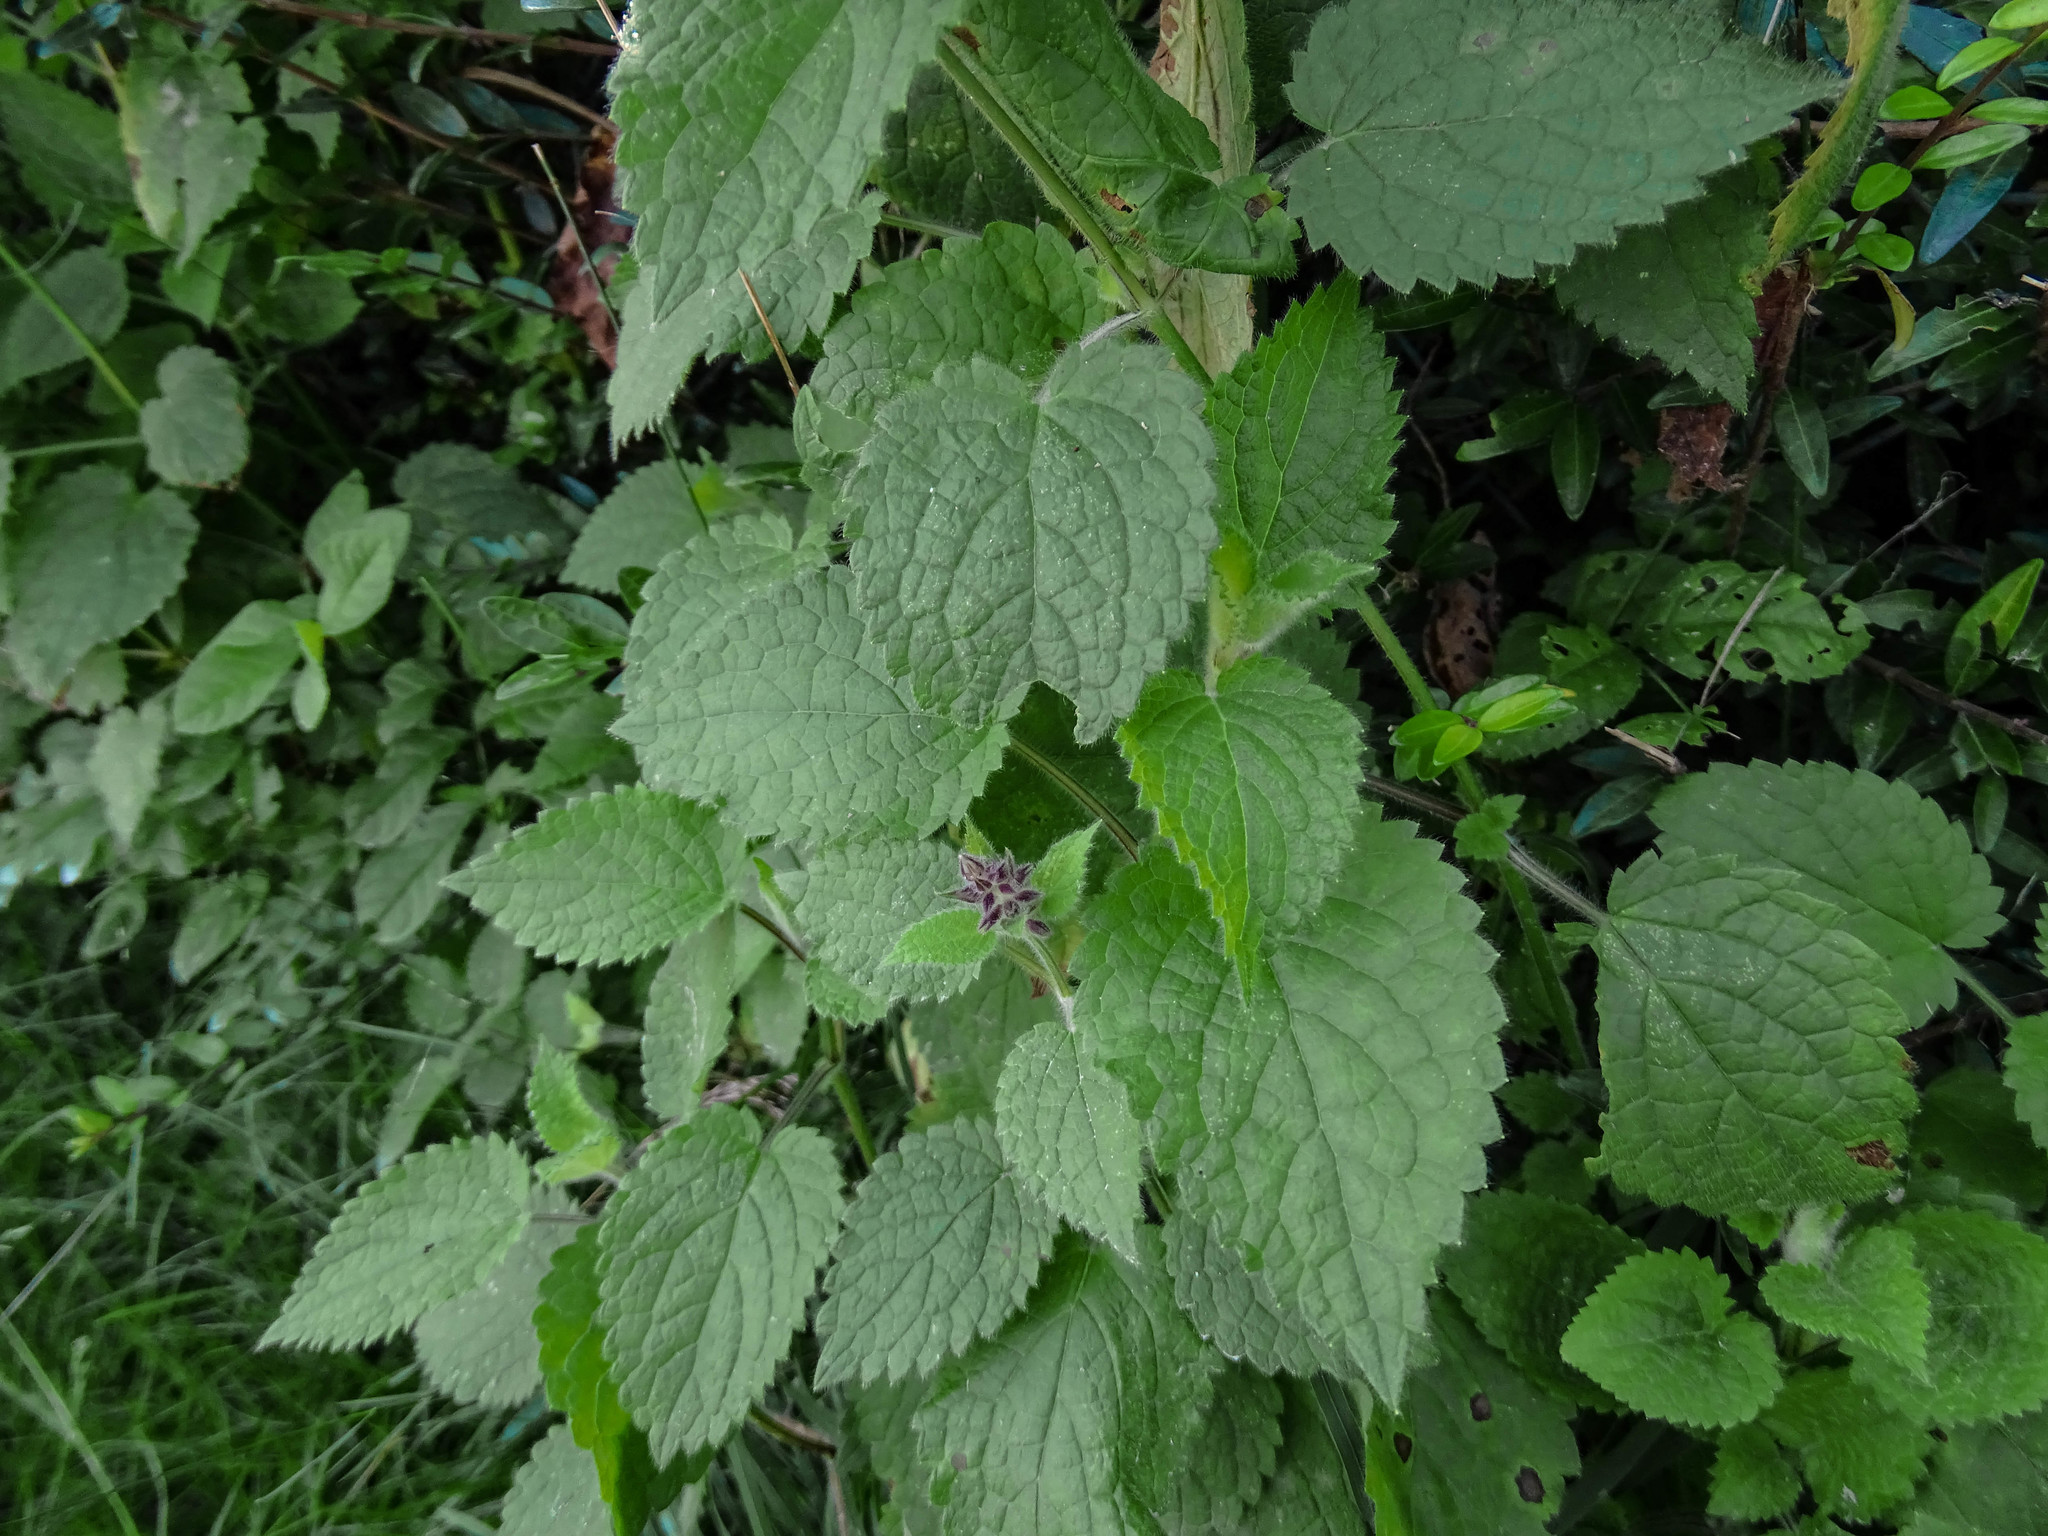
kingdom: Plantae
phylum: Tracheophyta
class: Magnoliopsida
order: Lamiales
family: Lamiaceae
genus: Stachys
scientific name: Stachys sylvatica
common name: Hedge woundwort
